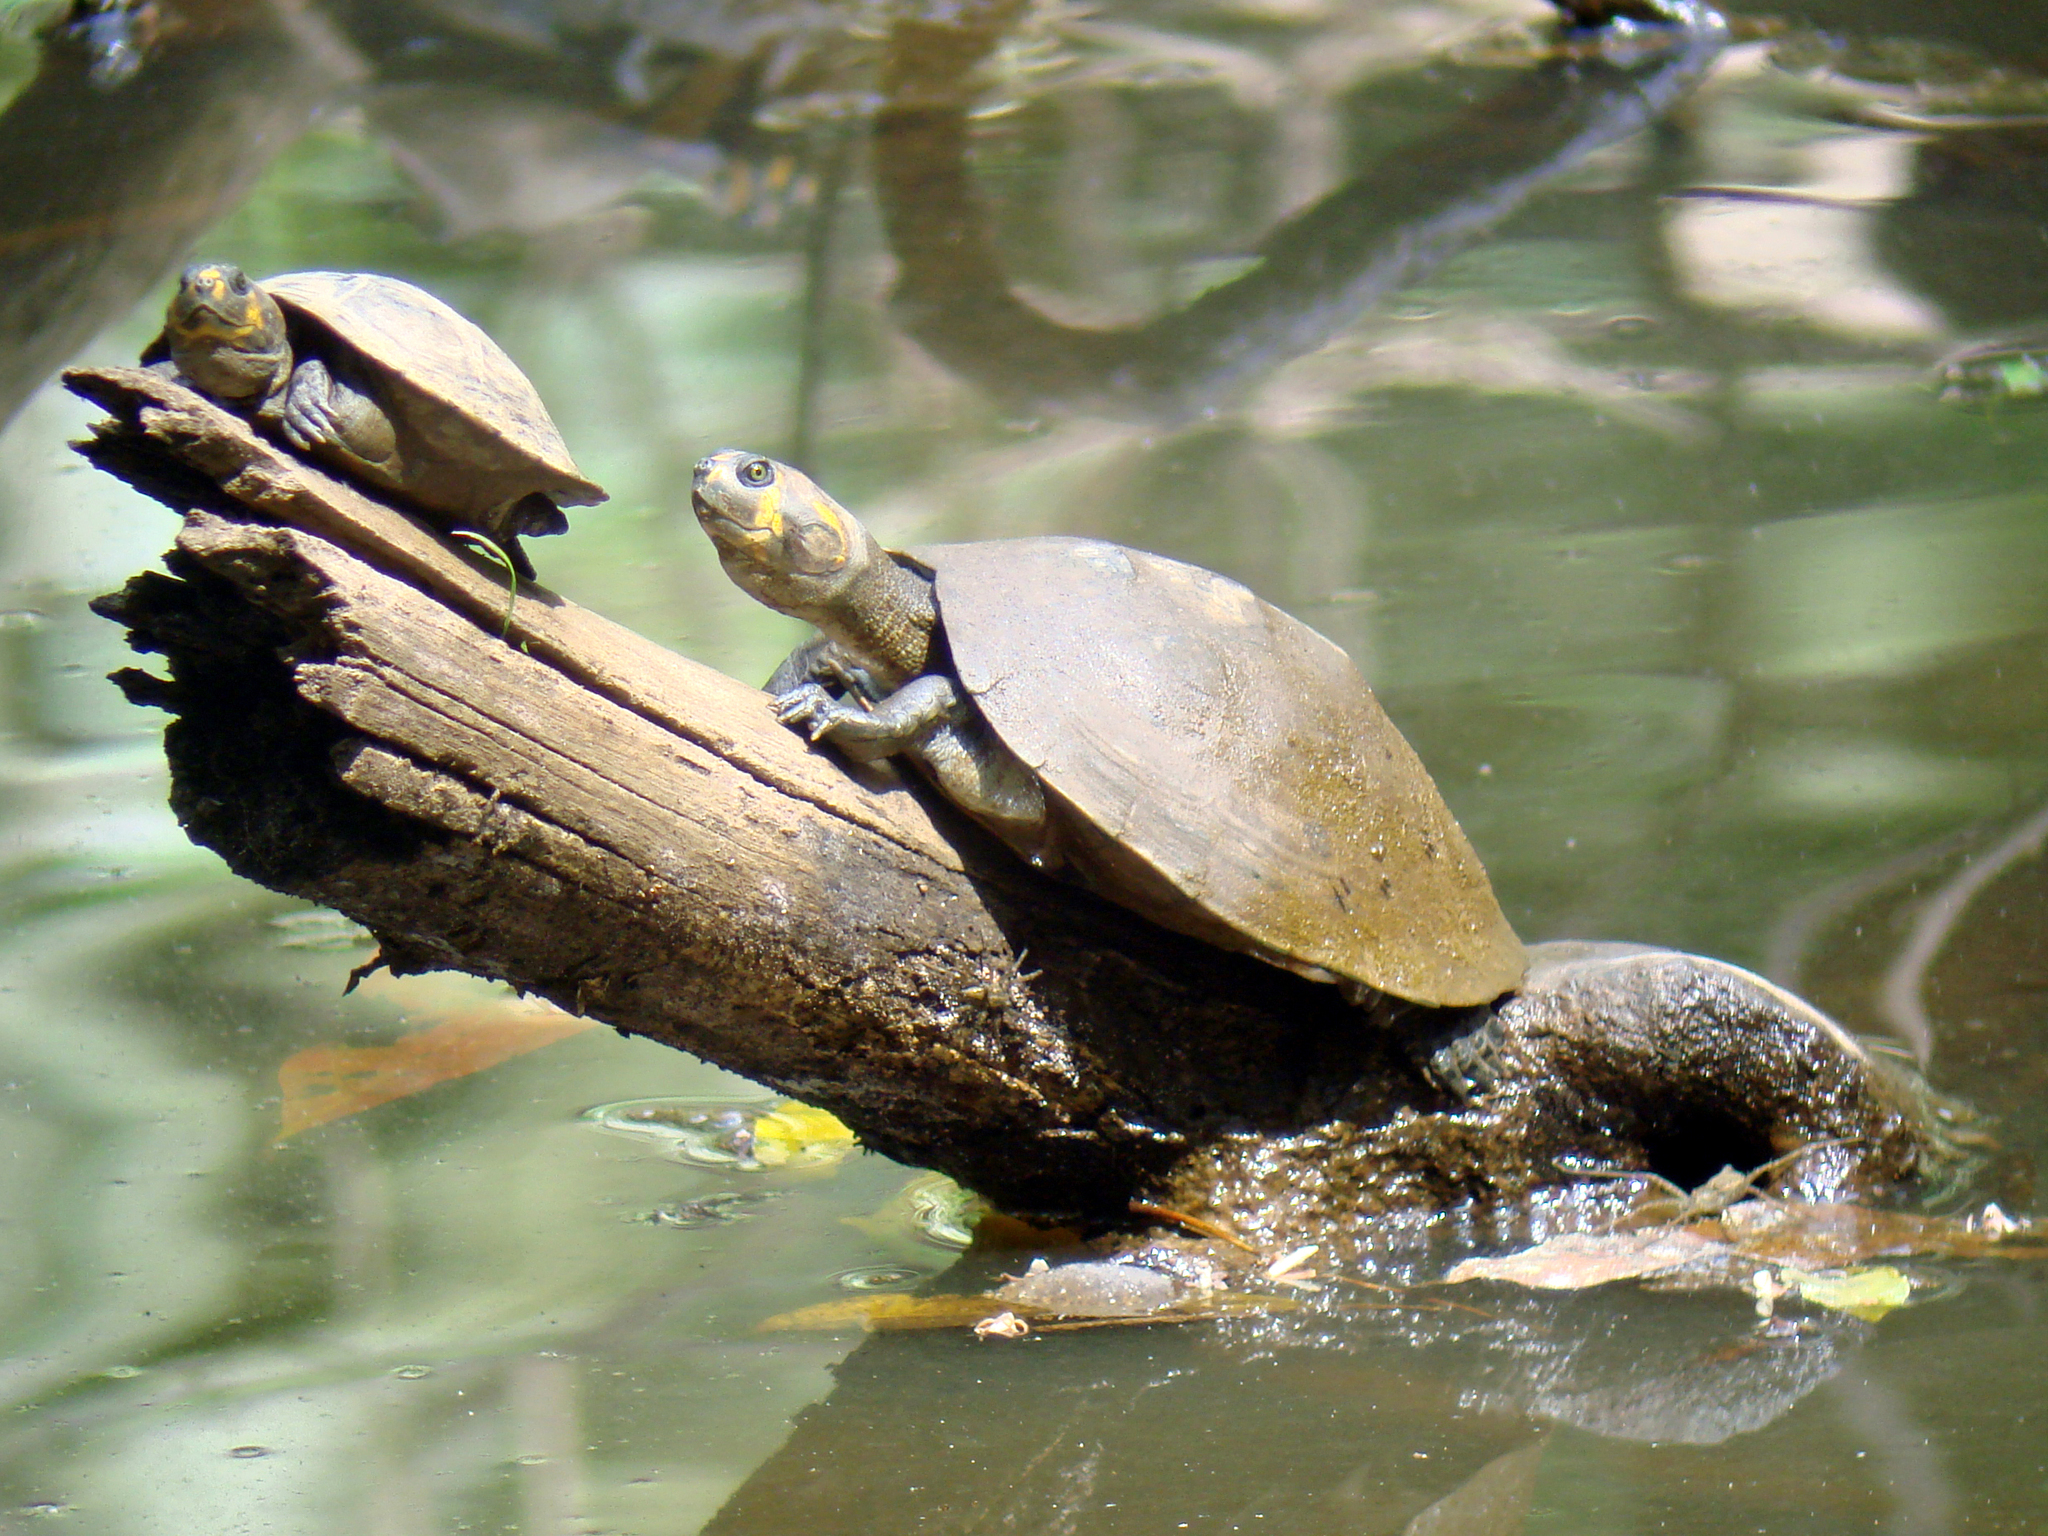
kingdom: Animalia
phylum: Chordata
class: Testudines
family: Podocnemididae
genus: Podocnemis
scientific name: Podocnemis unifilis
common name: Yellow-spotted amazon river turtle
